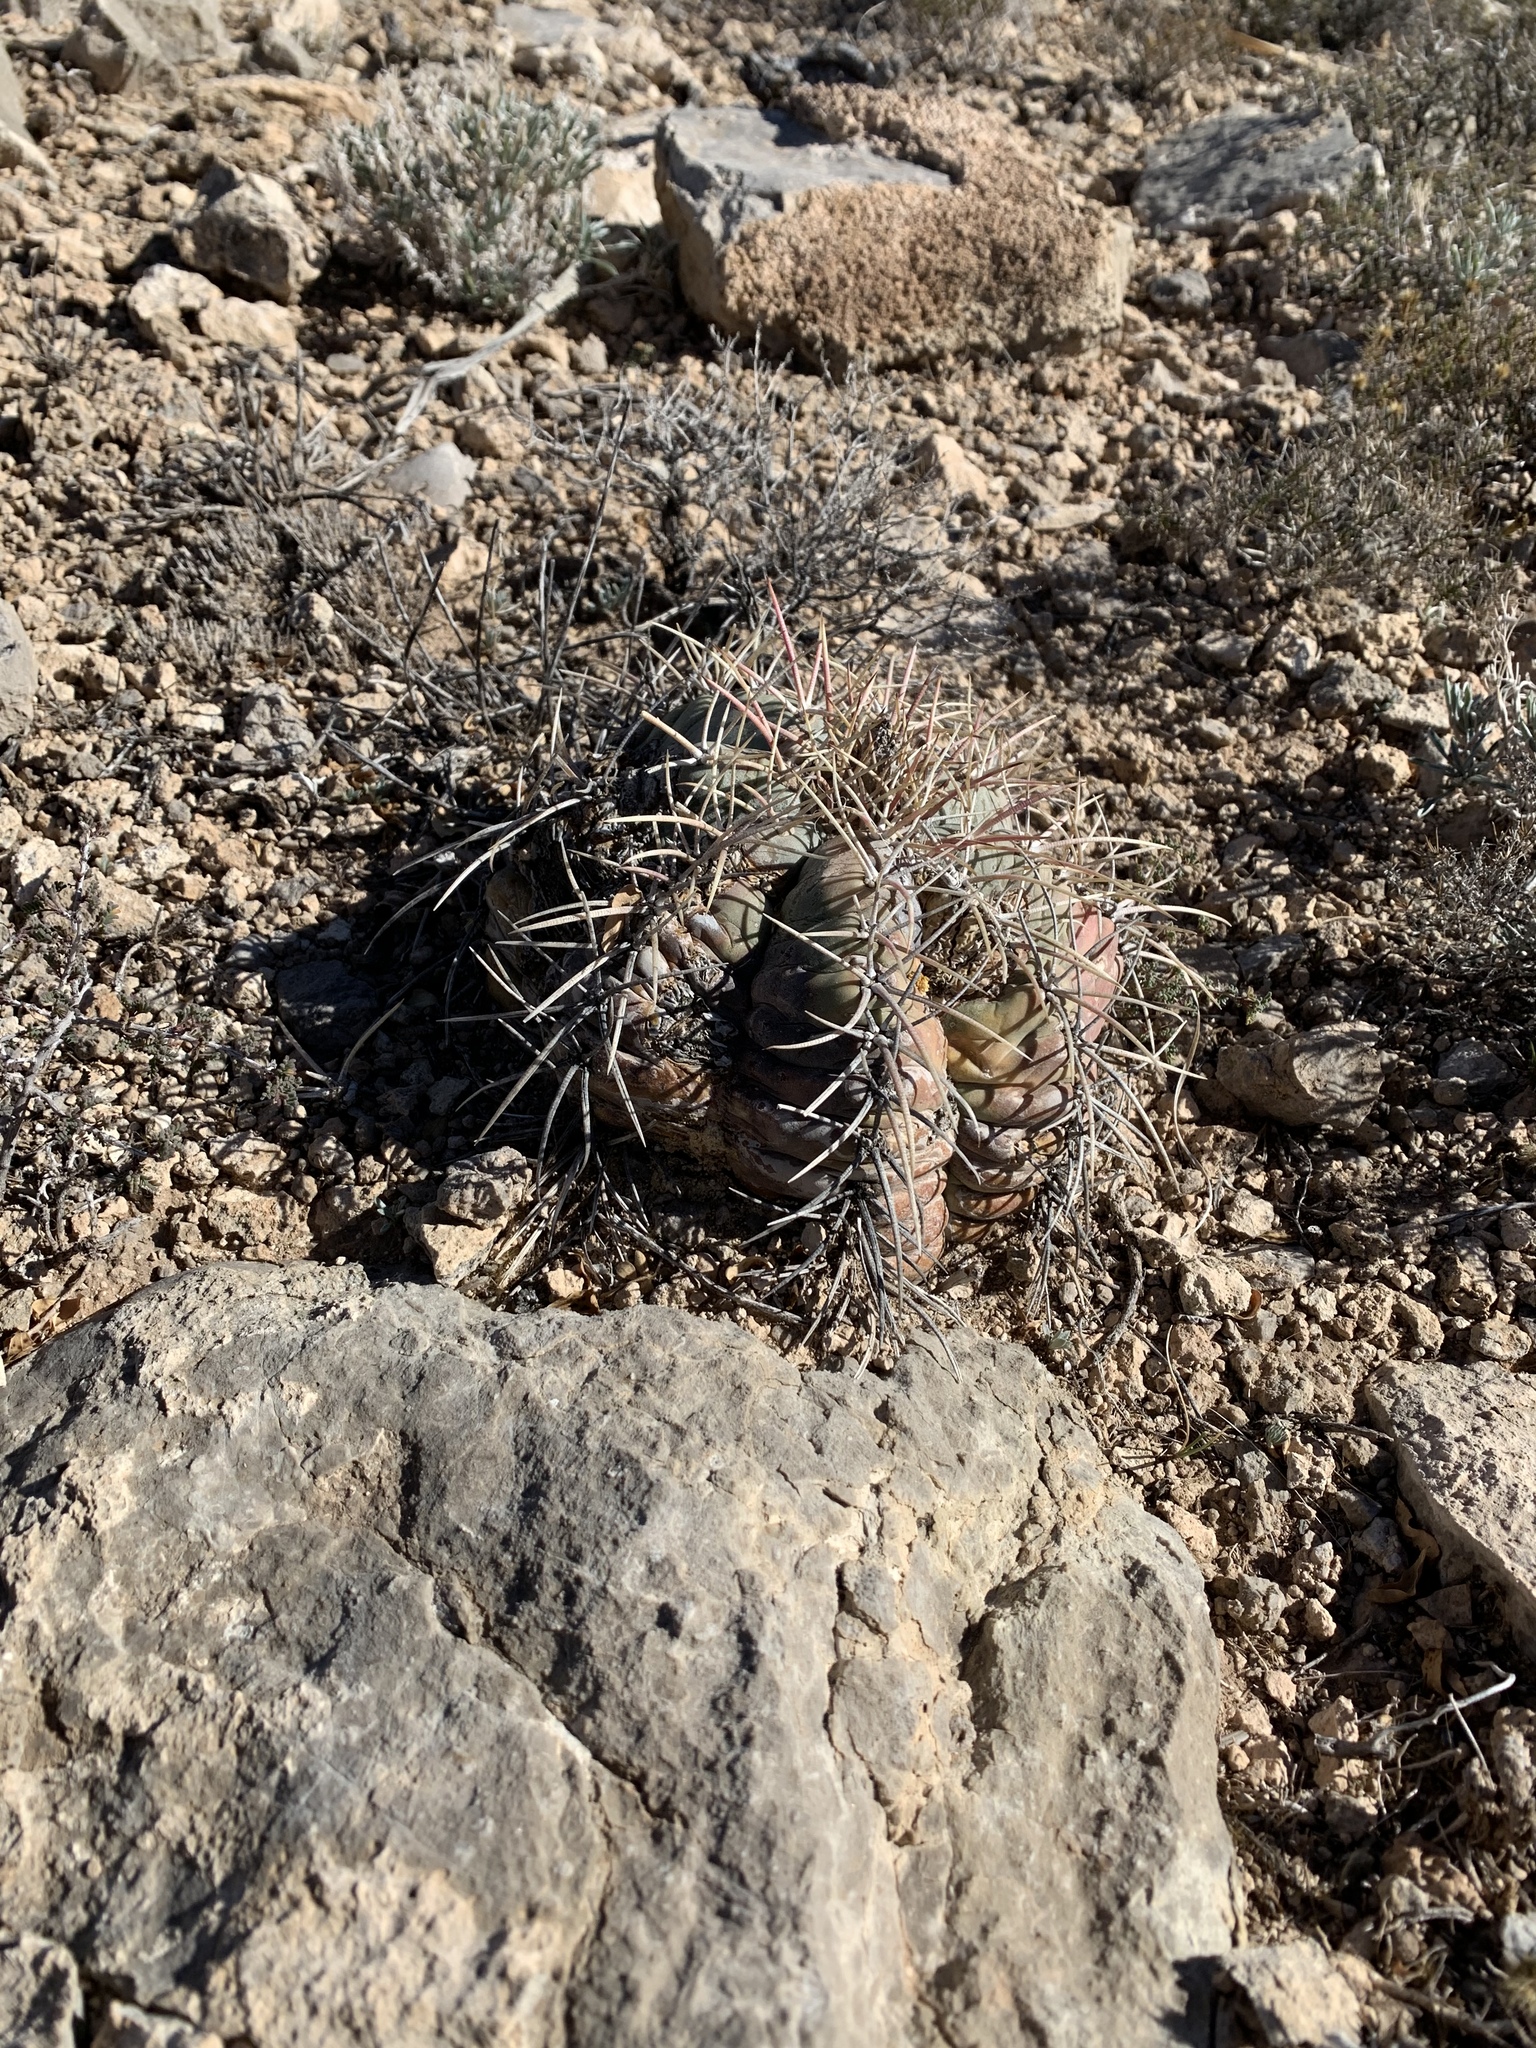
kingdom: Plantae
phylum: Tracheophyta
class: Magnoliopsida
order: Caryophyllales
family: Cactaceae
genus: Echinocactus
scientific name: Echinocactus horizonthalonius
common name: Devilshead
